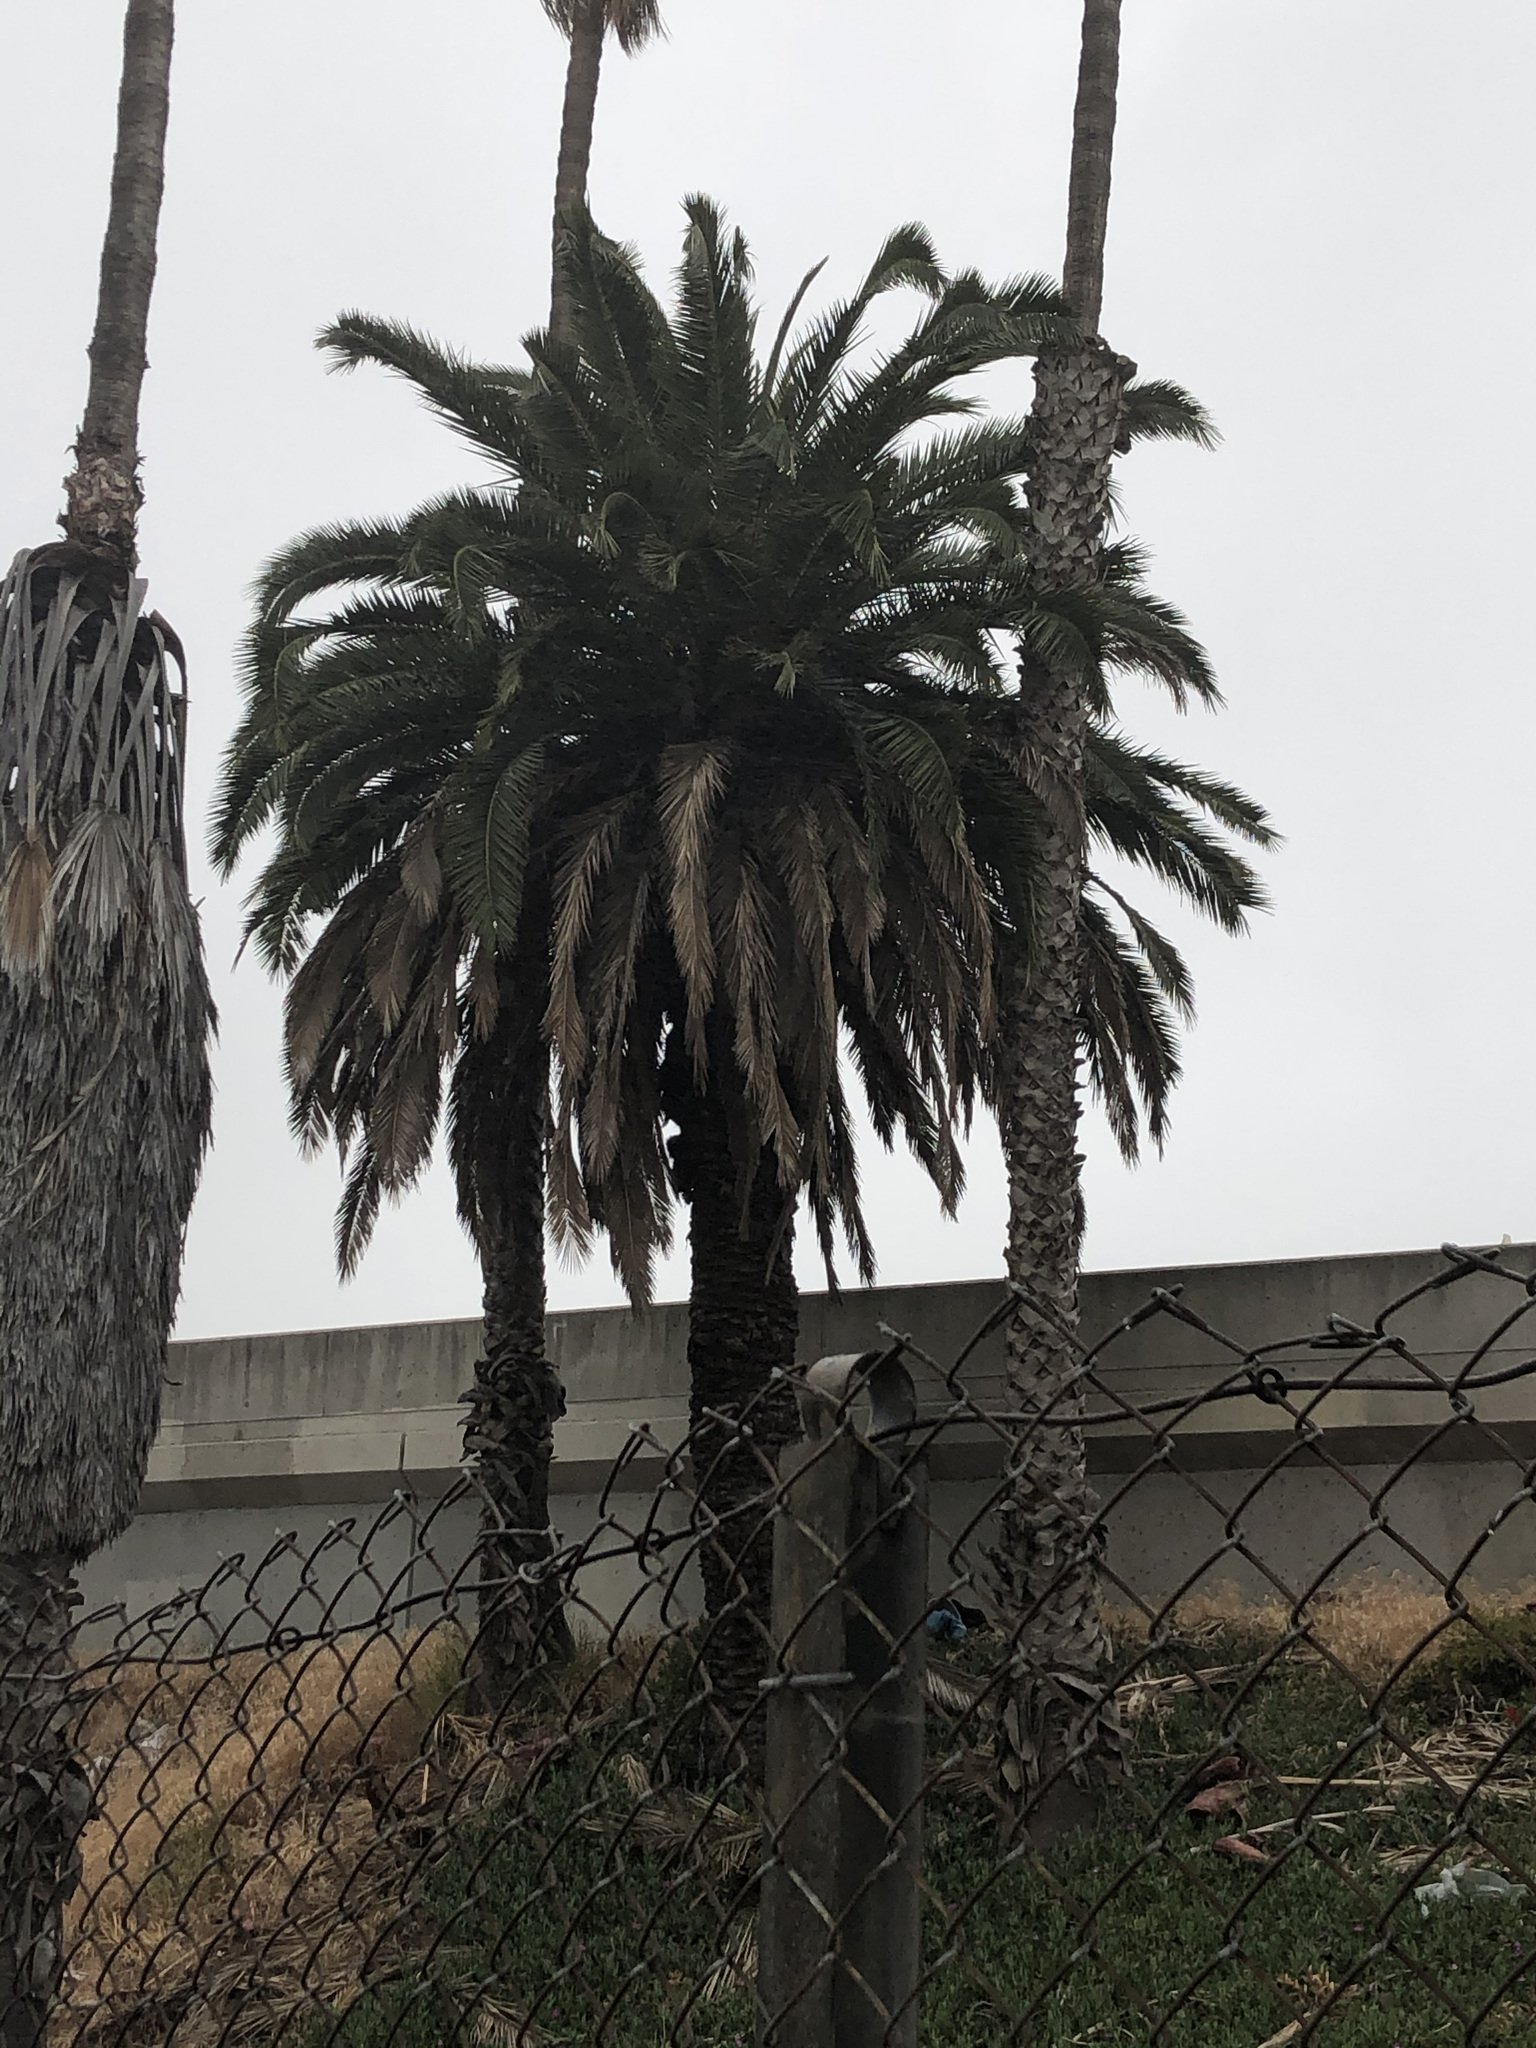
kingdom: Plantae
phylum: Tracheophyta
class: Liliopsida
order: Arecales
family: Arecaceae
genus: Phoenix
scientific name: Phoenix canariensis
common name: Canary island date palm
